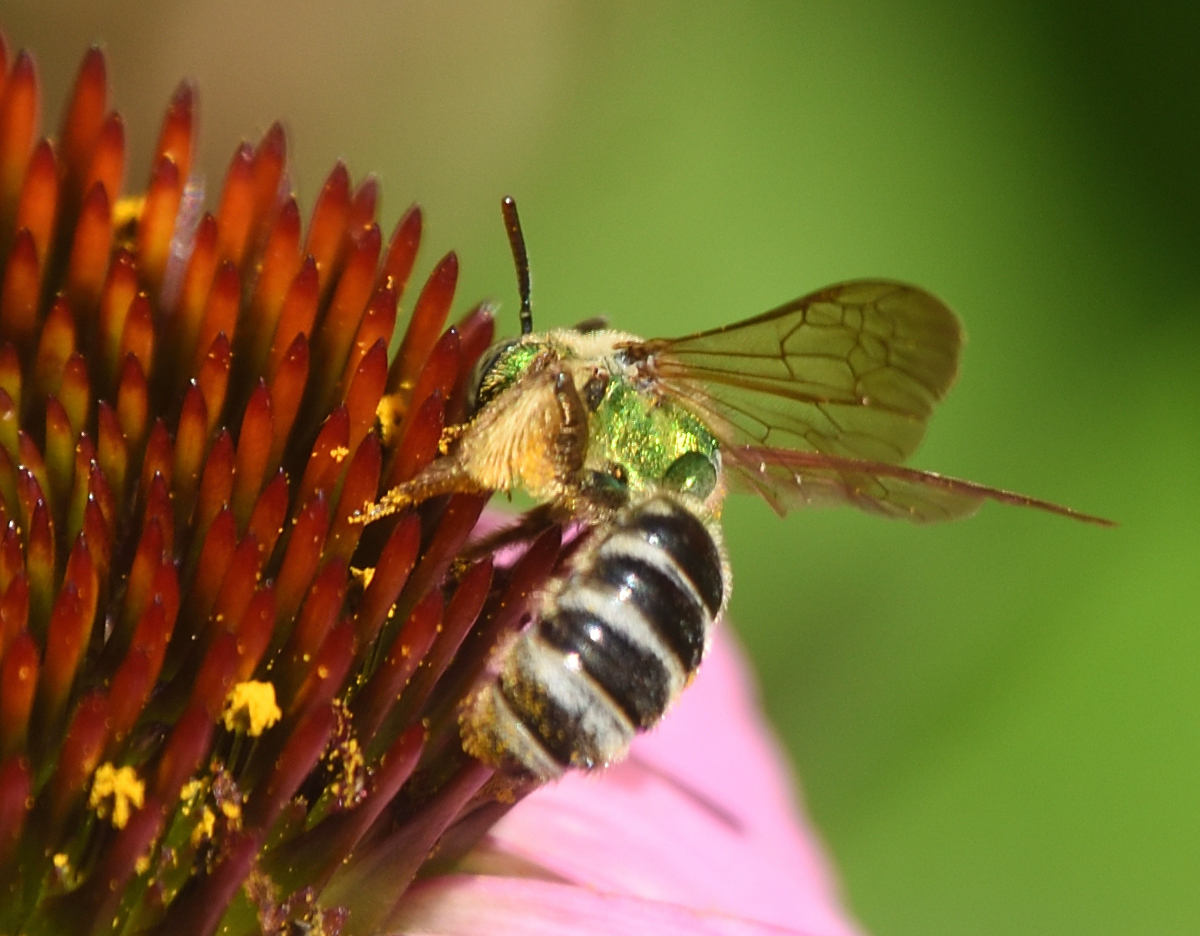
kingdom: Animalia
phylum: Arthropoda
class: Insecta
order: Hymenoptera
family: Halictidae
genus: Agapostemon
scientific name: Agapostemon virescens
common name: Bicolored striped sweat bee
